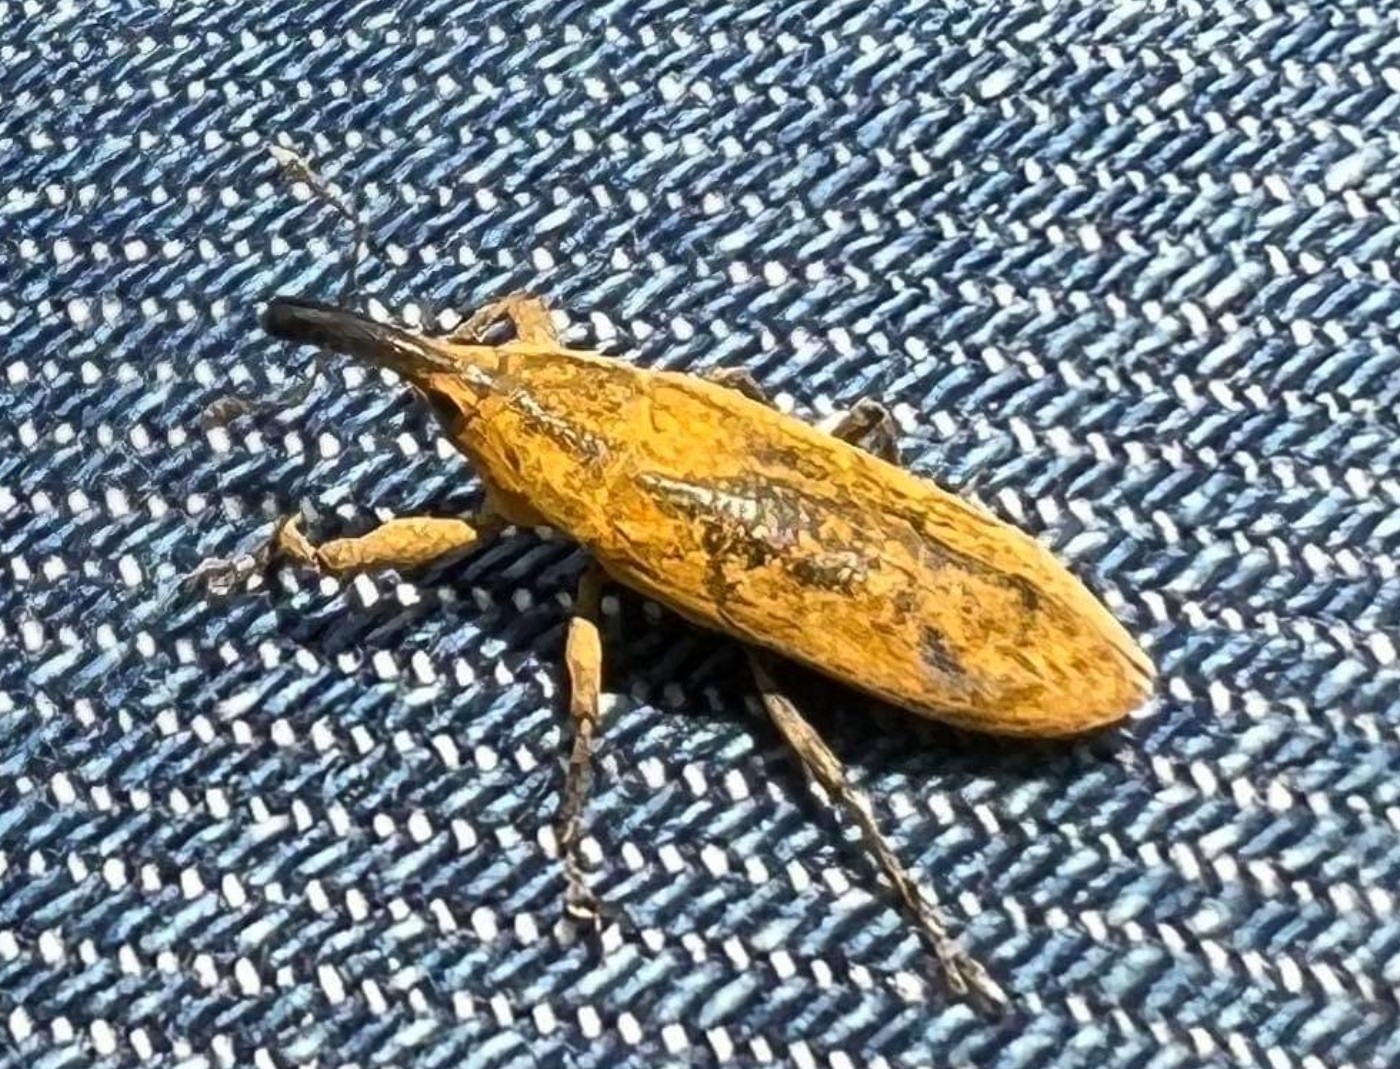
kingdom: Animalia
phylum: Arthropoda
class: Insecta
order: Coleoptera
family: Curculionidae
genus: Lixus
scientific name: Lixus concavus
